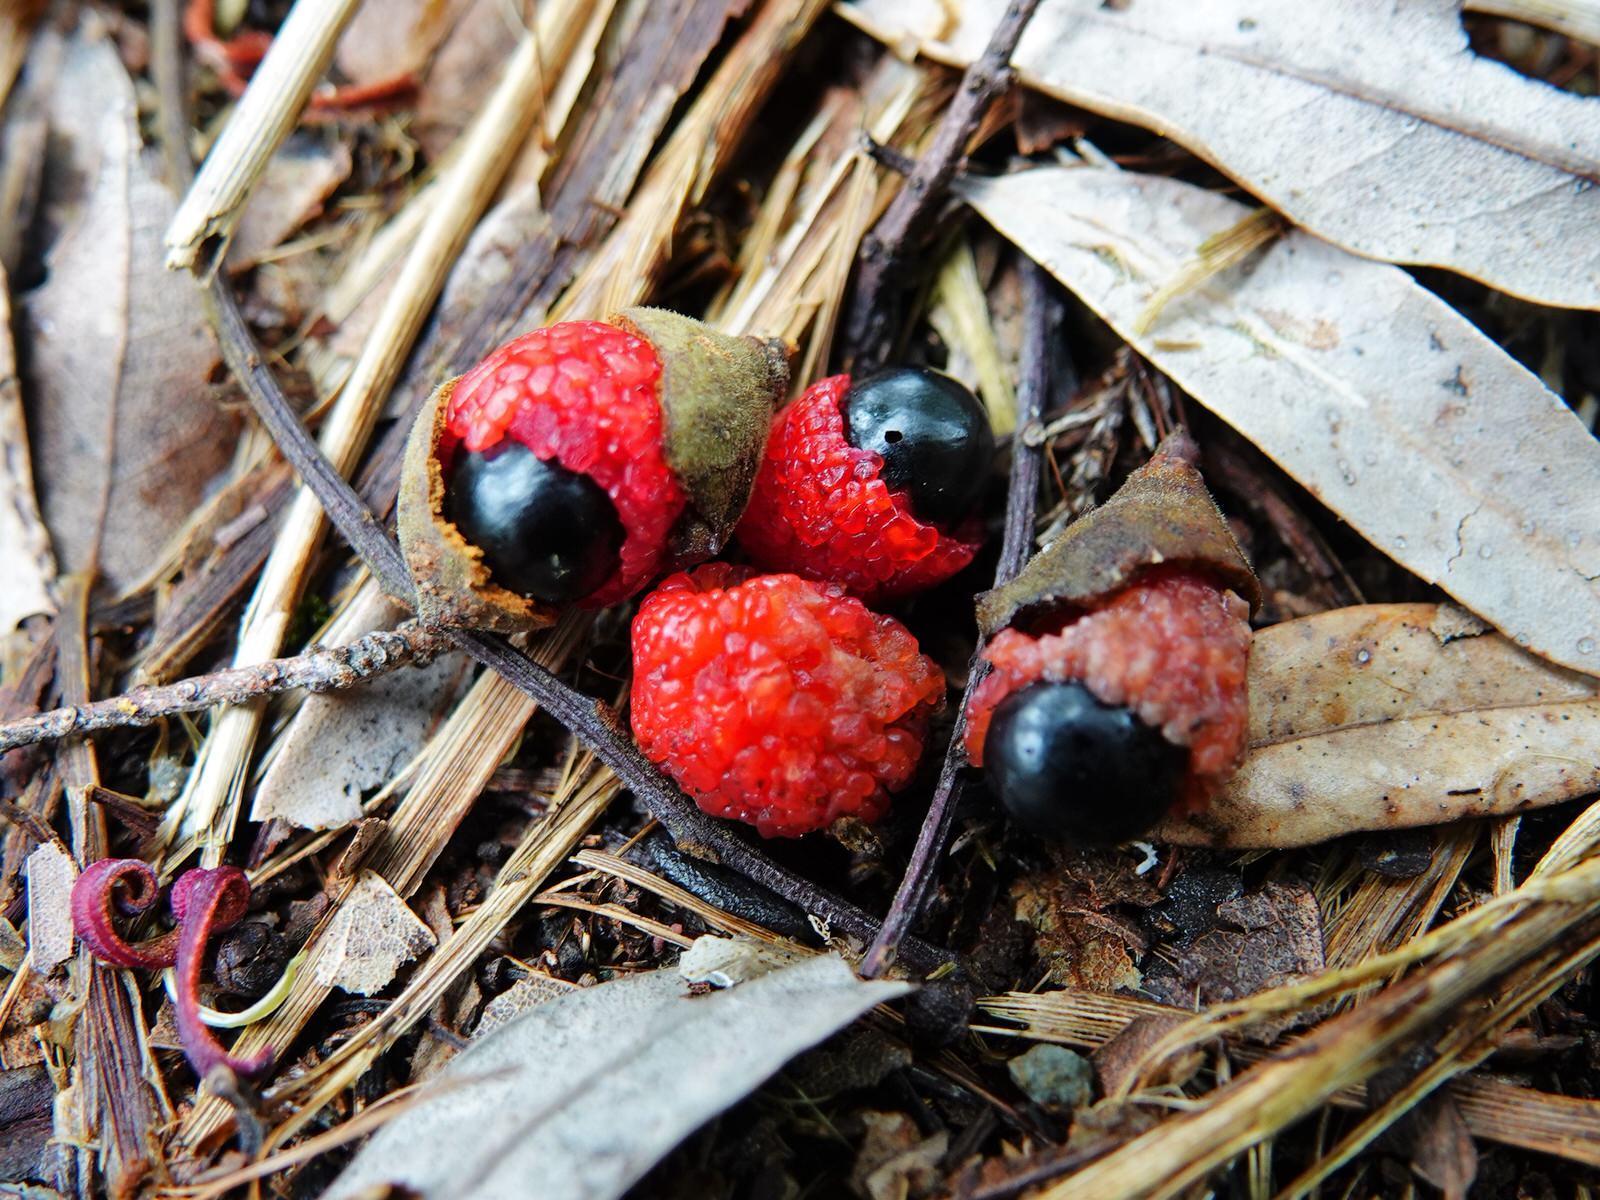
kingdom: Plantae
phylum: Tracheophyta
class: Magnoliopsida
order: Sapindales
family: Sapindaceae
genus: Alectryon
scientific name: Alectryon excelsus
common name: Three kings titoki
